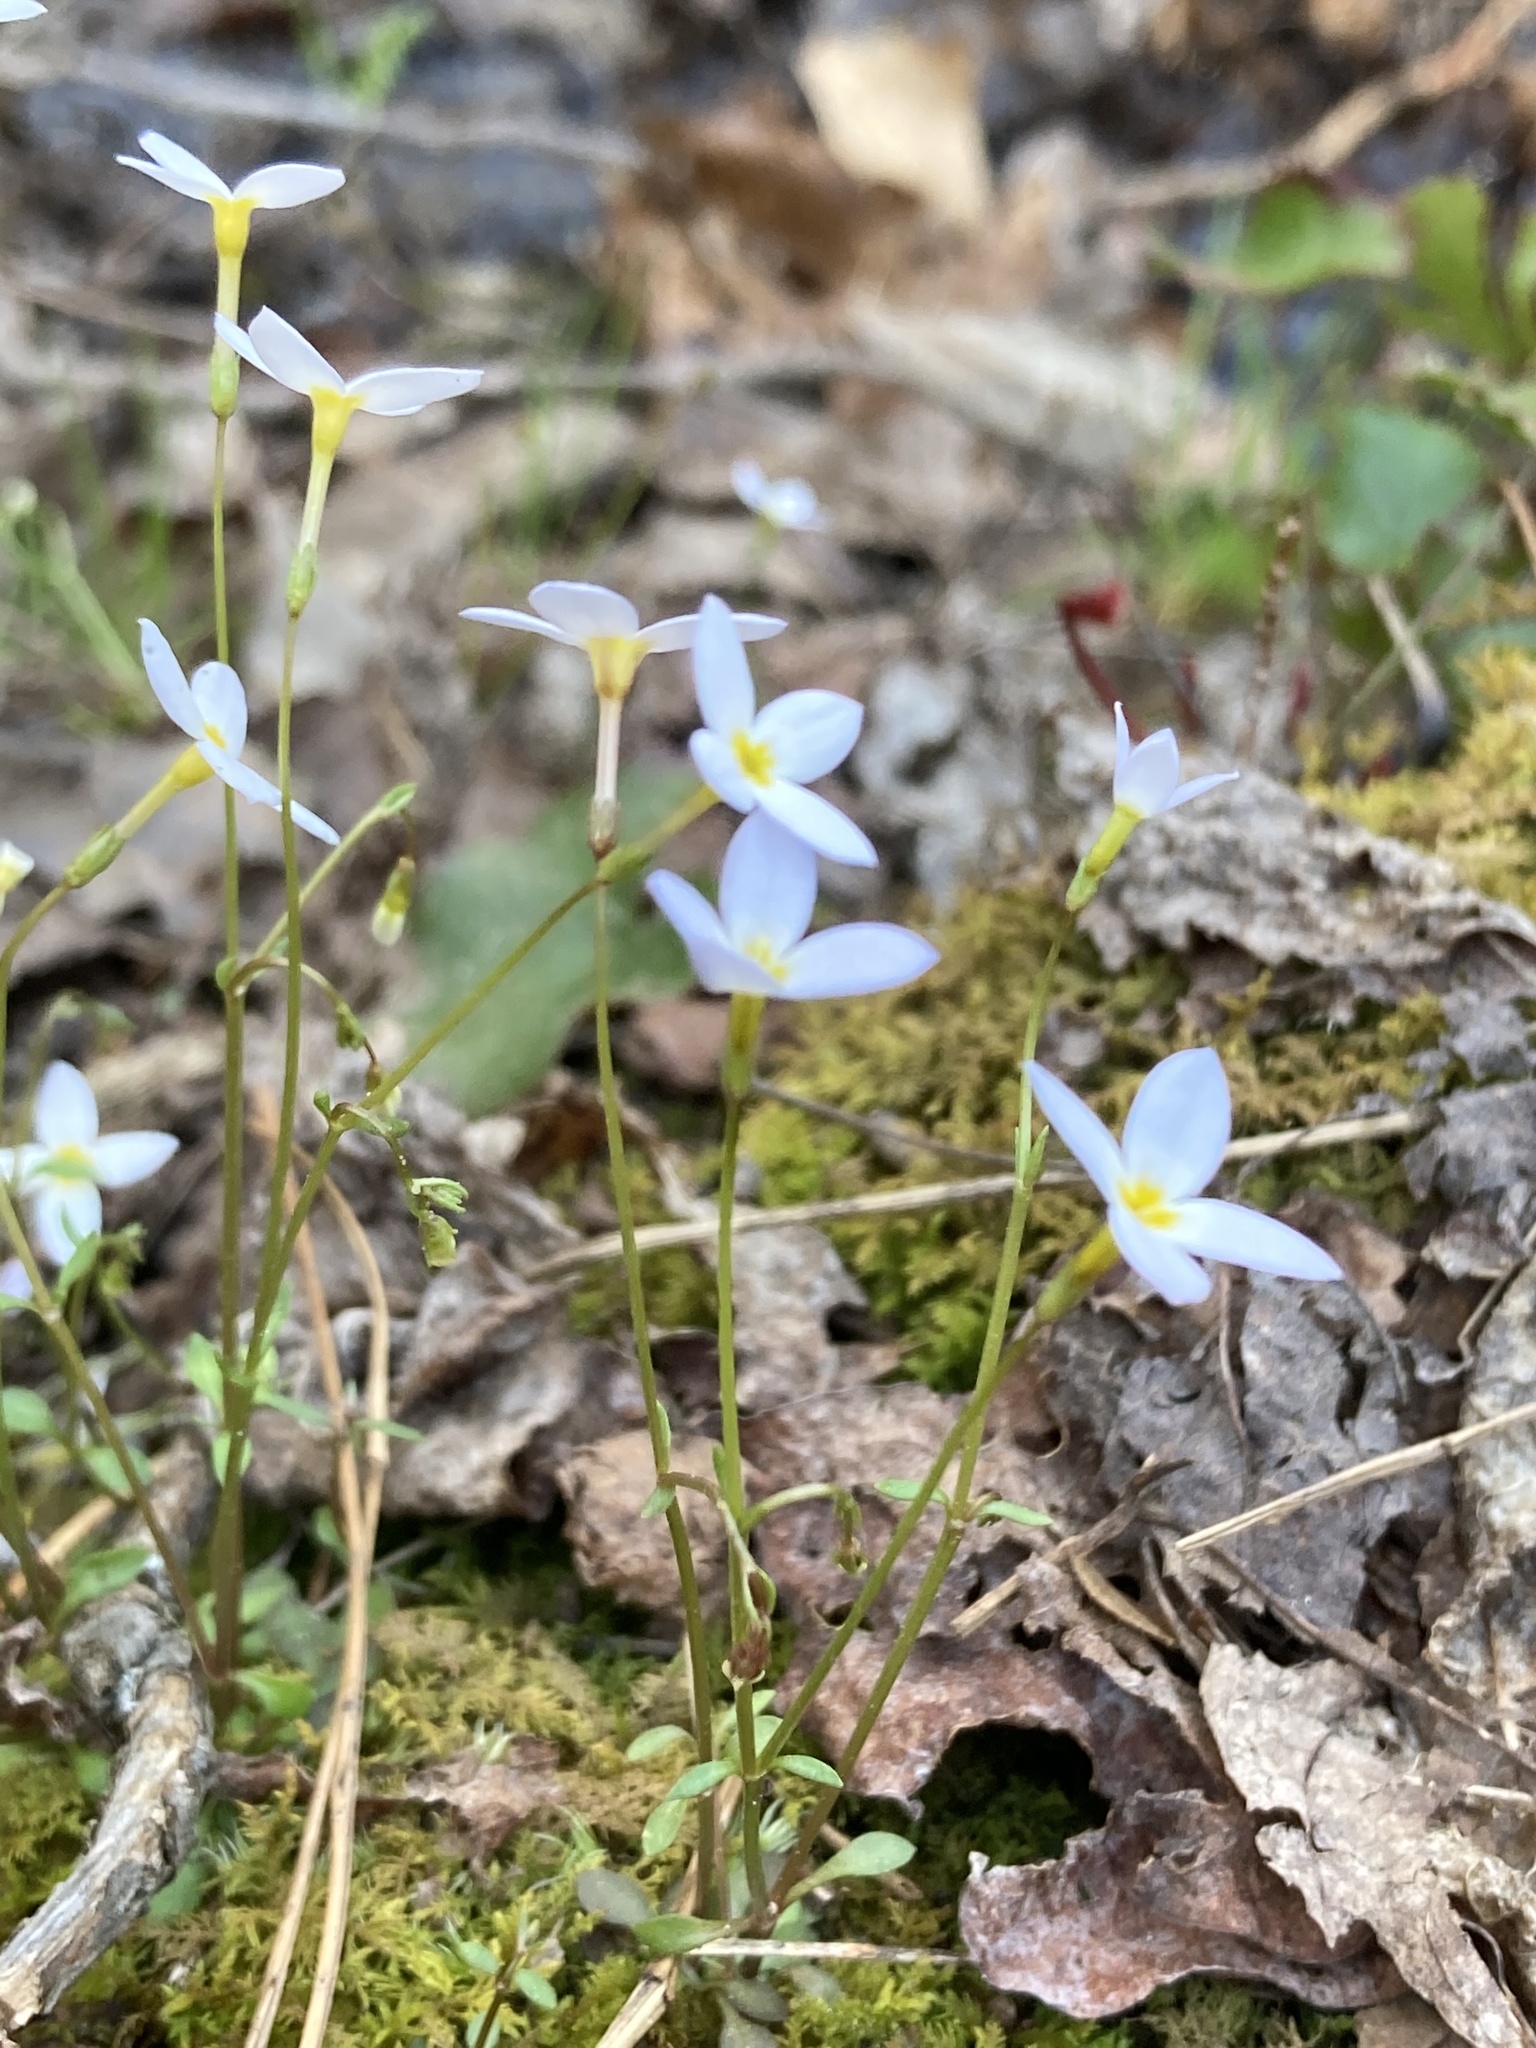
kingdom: Plantae
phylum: Tracheophyta
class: Magnoliopsida
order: Gentianales
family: Rubiaceae
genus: Houstonia
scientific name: Houstonia caerulea
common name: Bluets
